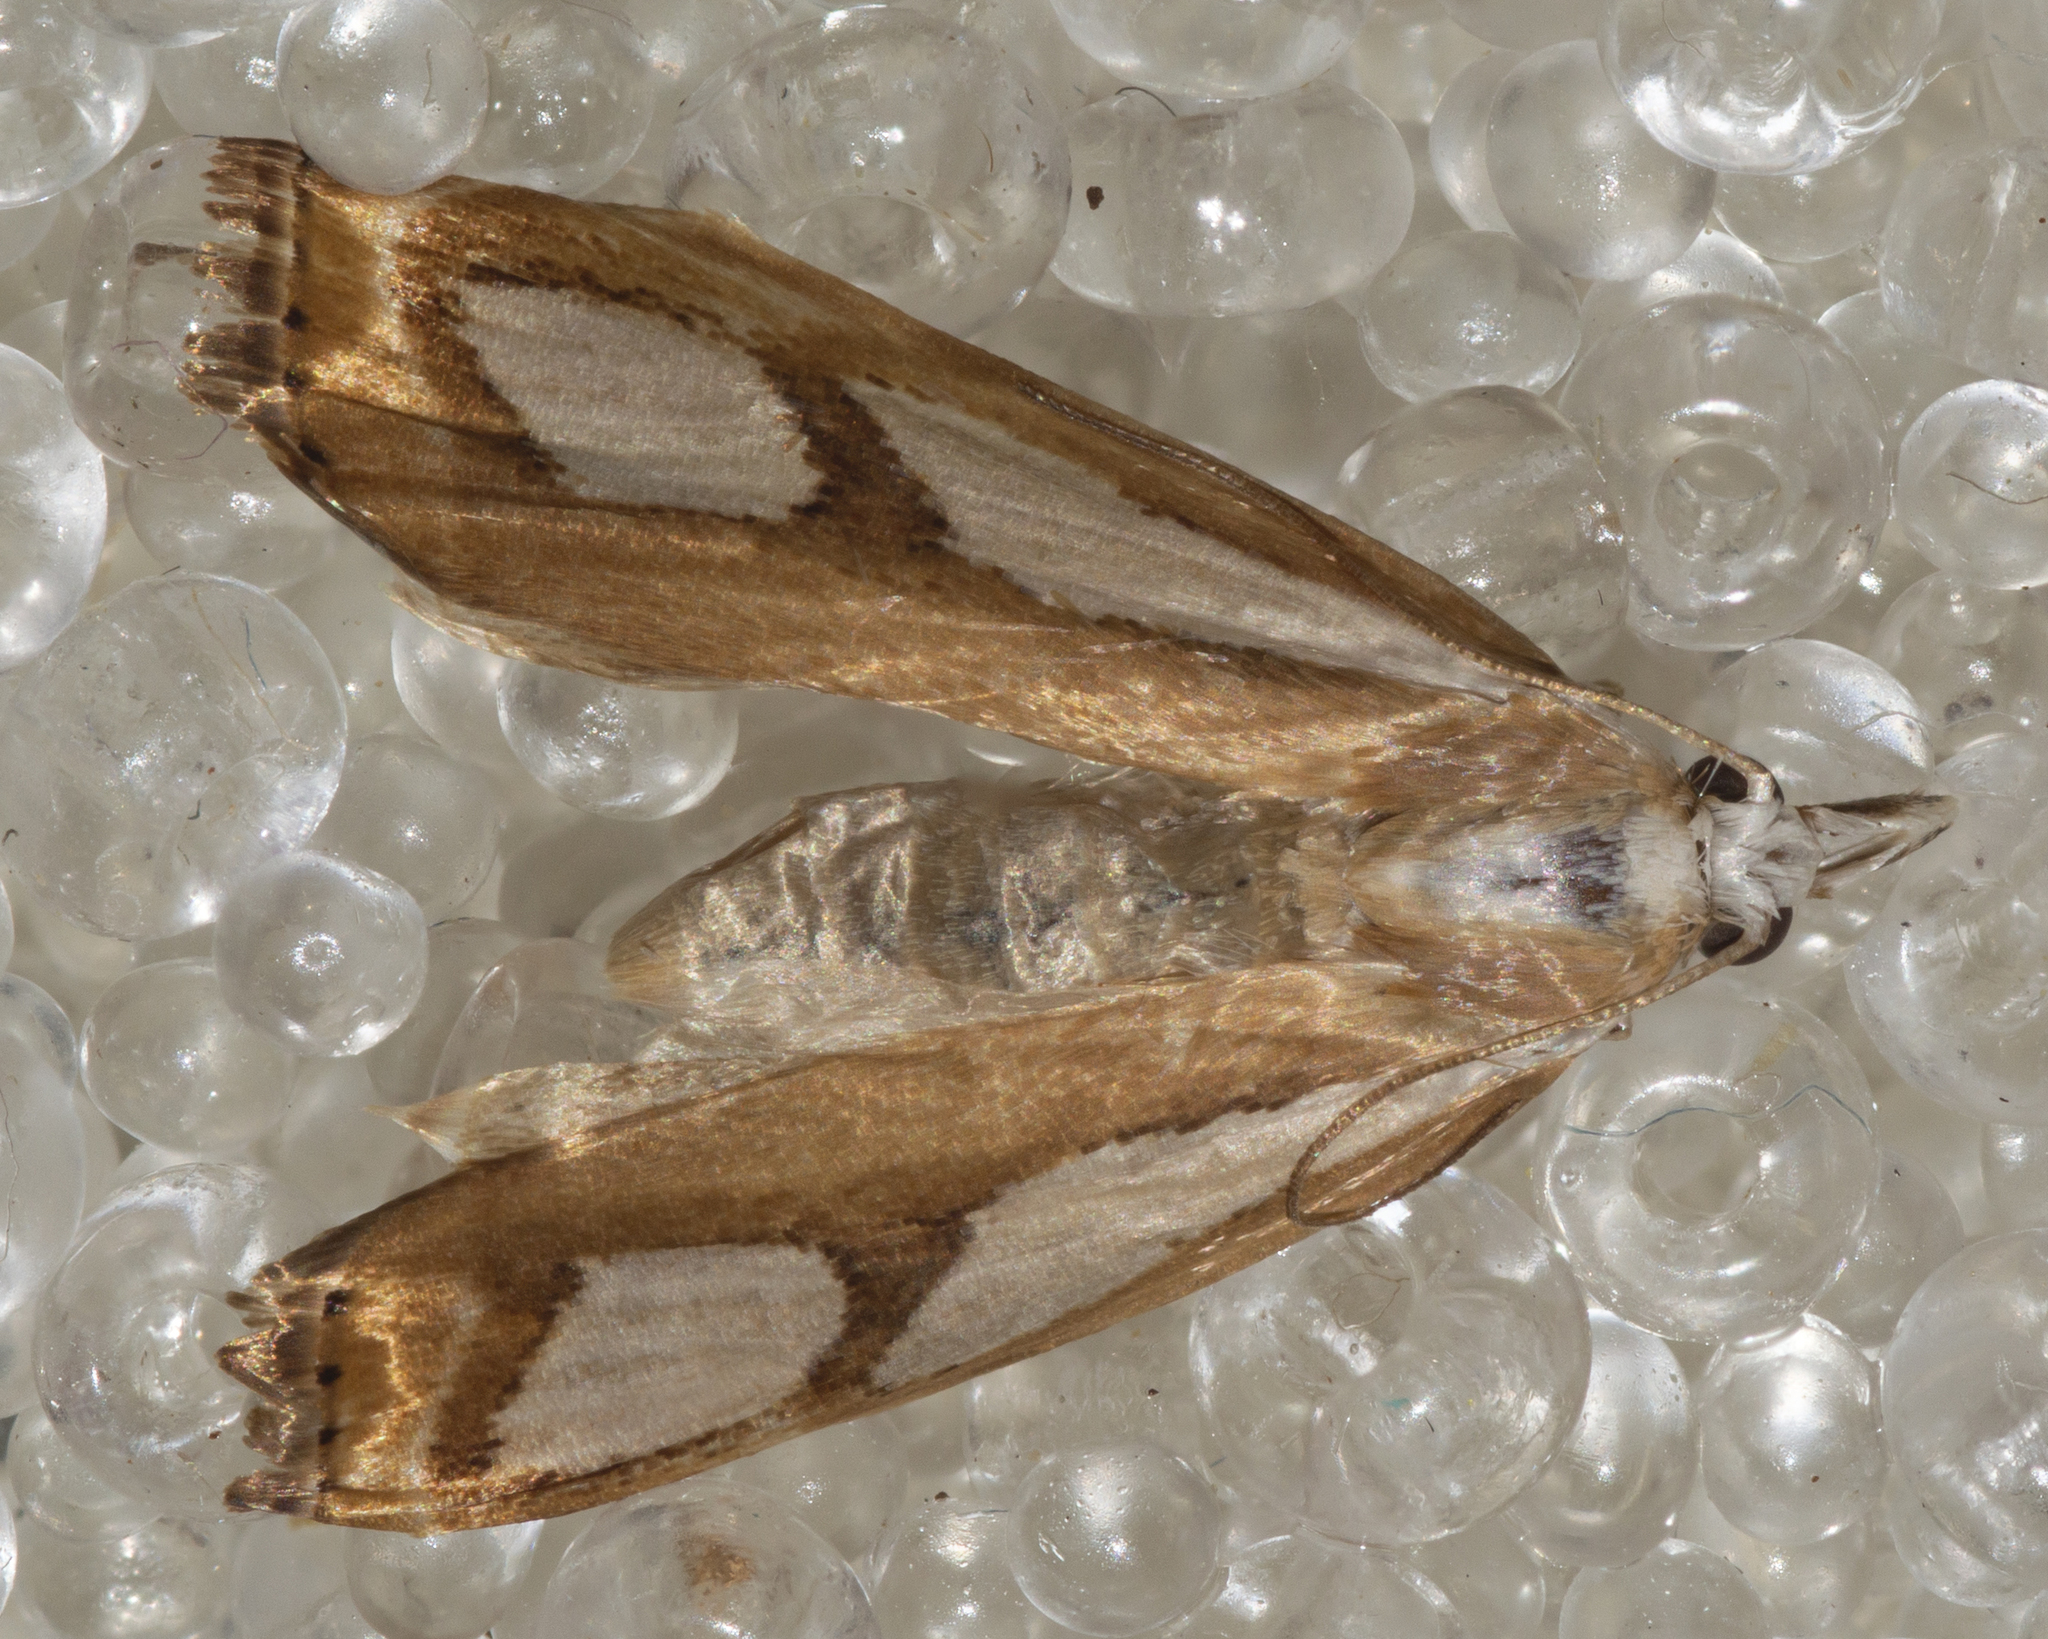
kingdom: Animalia
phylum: Arthropoda
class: Insecta
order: Lepidoptera
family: Crambidae
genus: Catoptria
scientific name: Catoptria pinella
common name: Pearl grass-veneer
